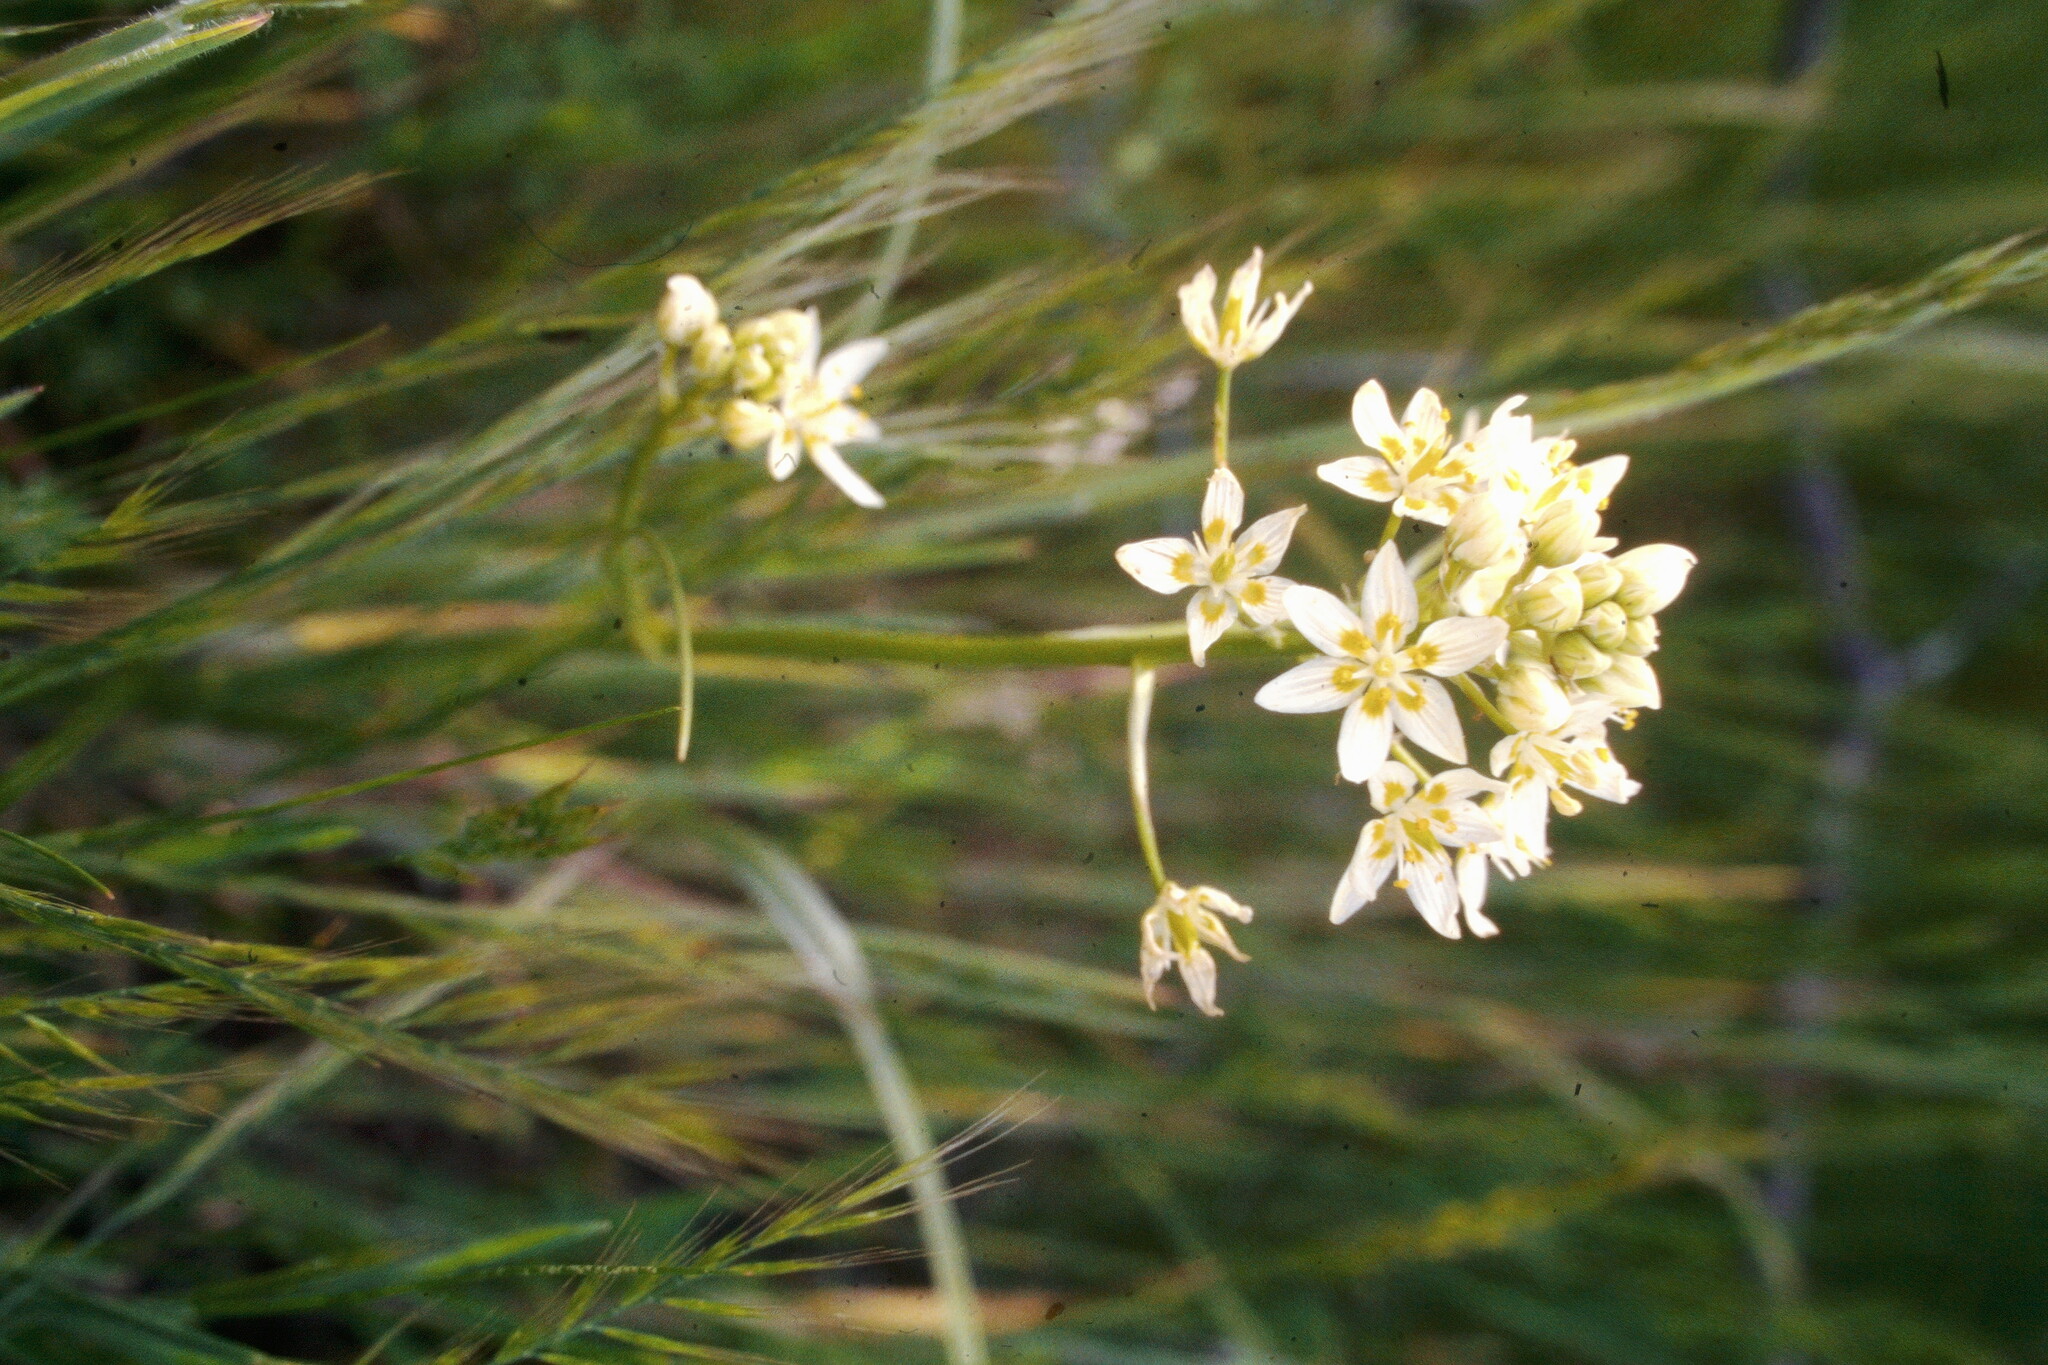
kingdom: Plantae
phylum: Tracheophyta
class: Liliopsida
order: Liliales
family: Melanthiaceae
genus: Toxicoscordion
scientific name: Toxicoscordion fremontii
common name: Fremont's death camas
